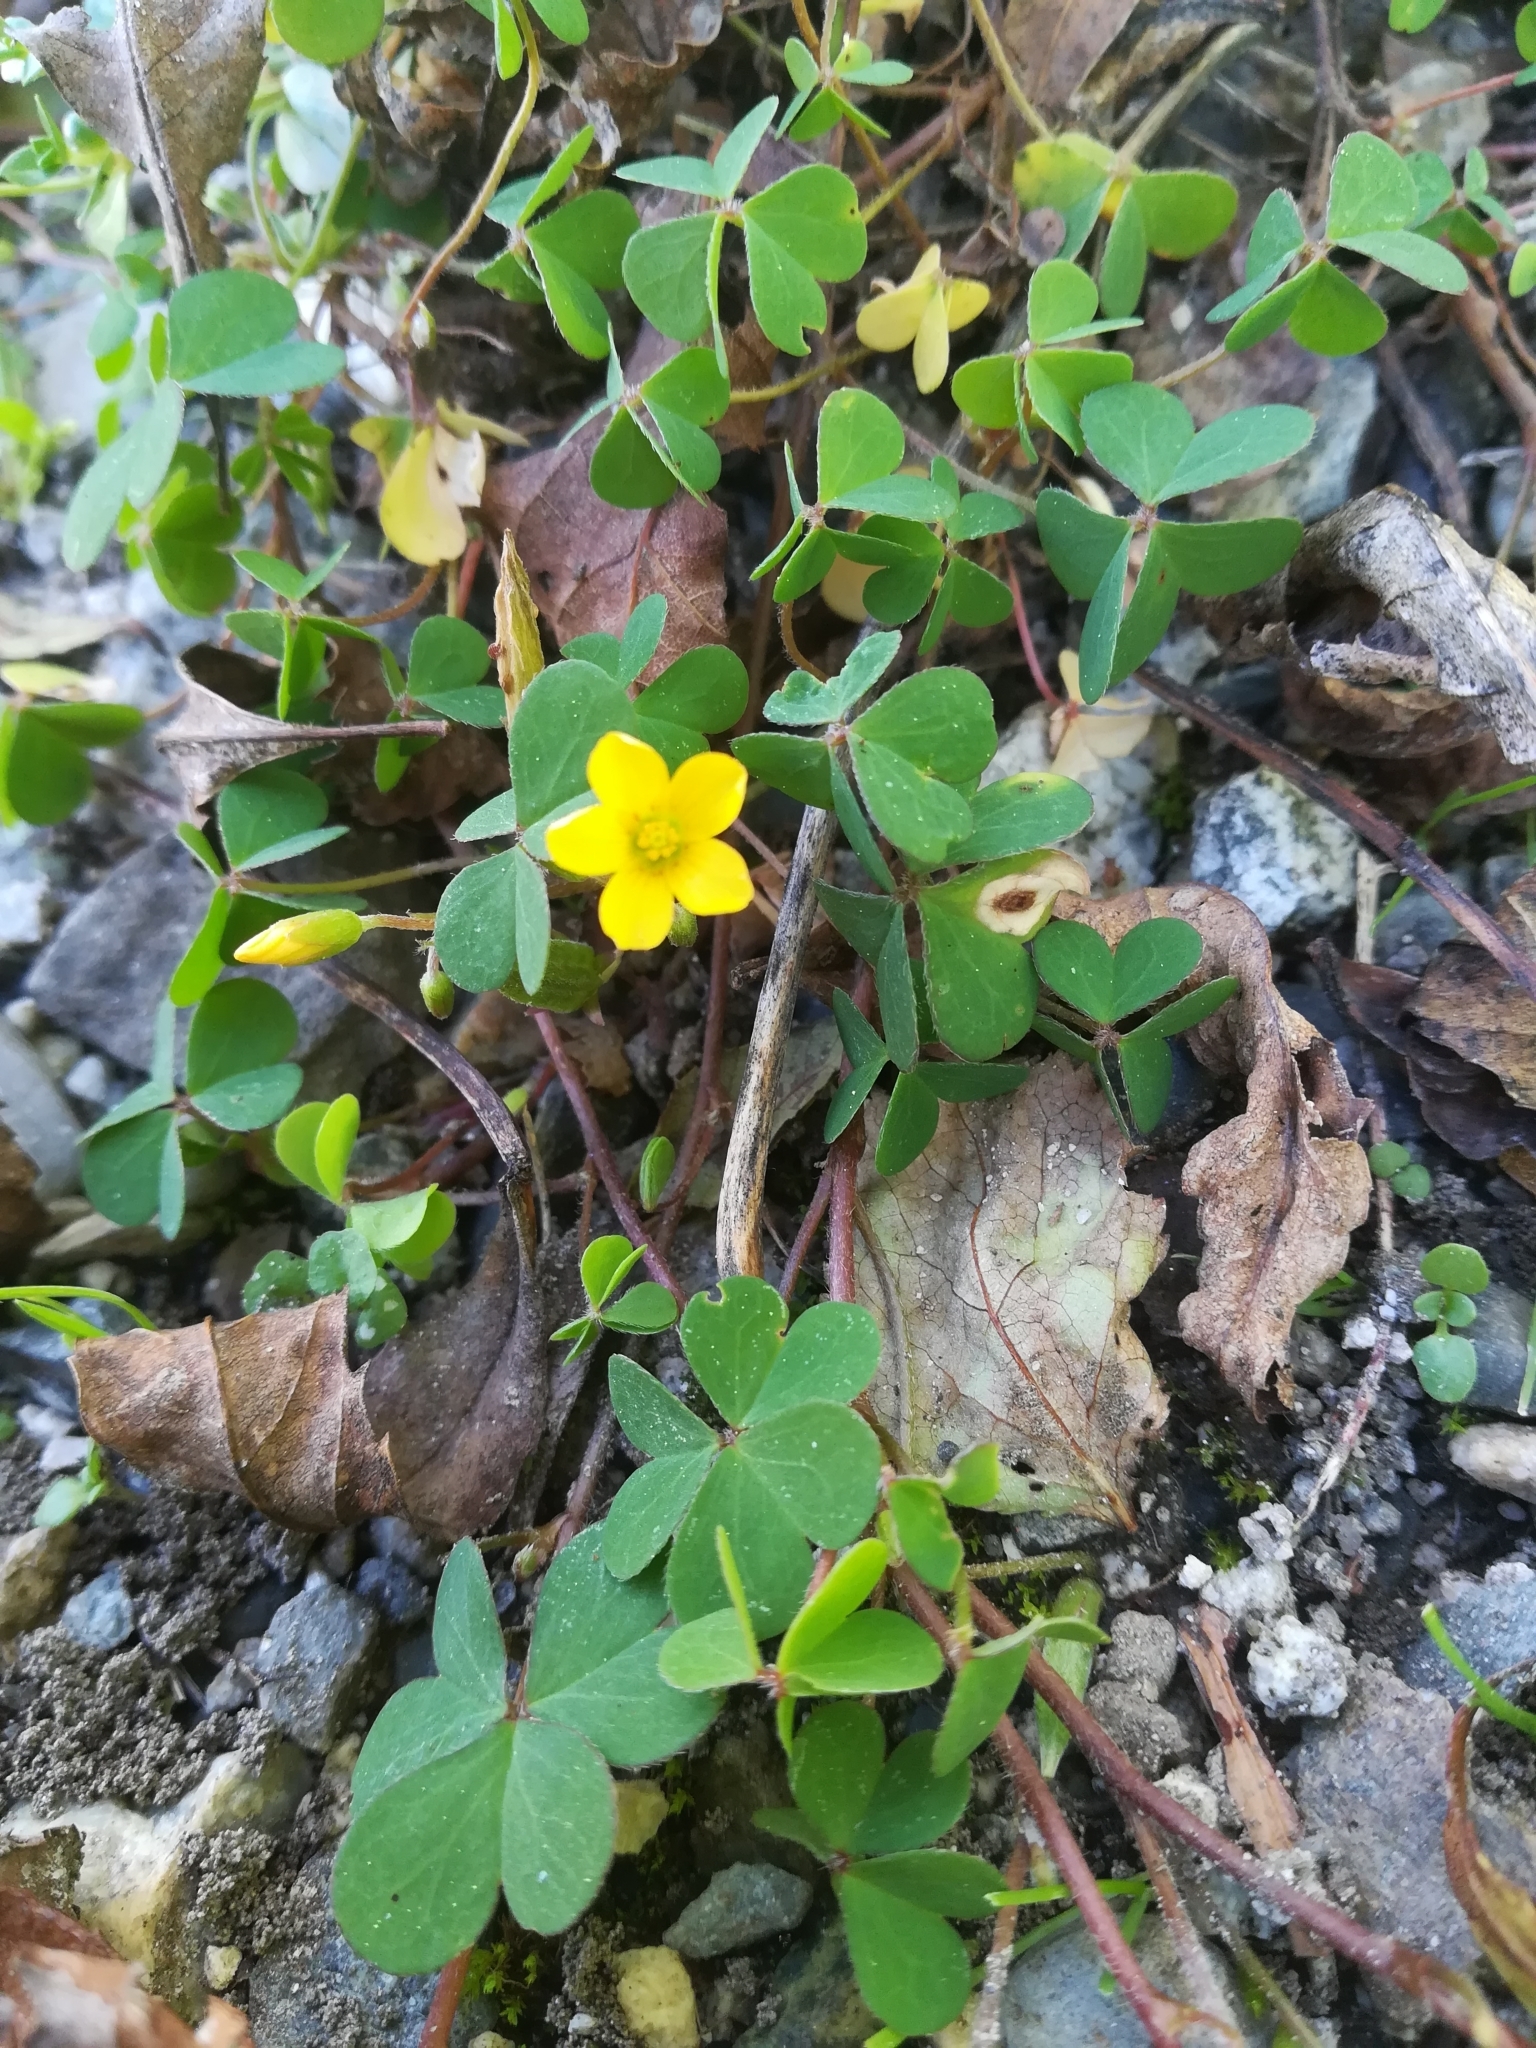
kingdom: Plantae
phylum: Tracheophyta
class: Magnoliopsida
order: Oxalidales
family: Oxalidaceae
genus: Oxalis
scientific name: Oxalis corniculata
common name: Procumbent yellow-sorrel
